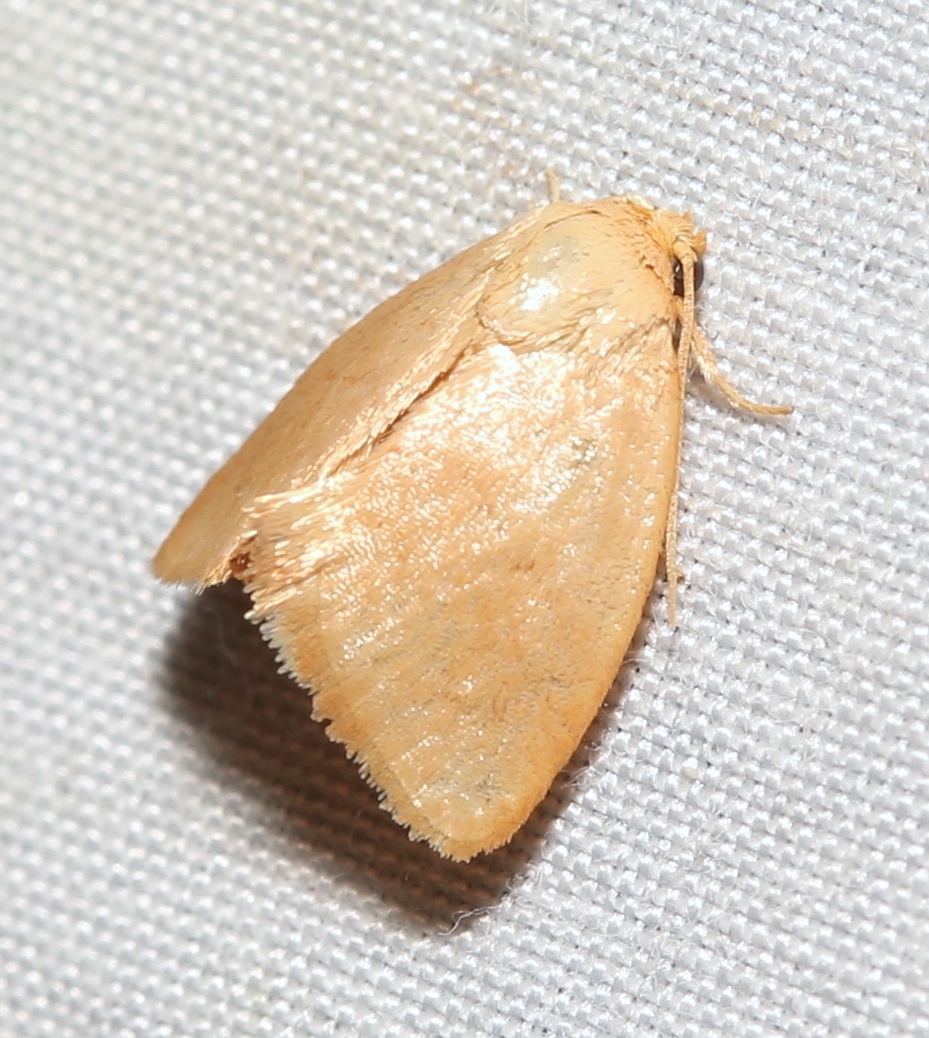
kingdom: Animalia
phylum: Arthropoda
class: Insecta
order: Lepidoptera
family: Limacodidae
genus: Tortricidia
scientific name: Tortricidia pallida
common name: Red-crossed button slug moth
